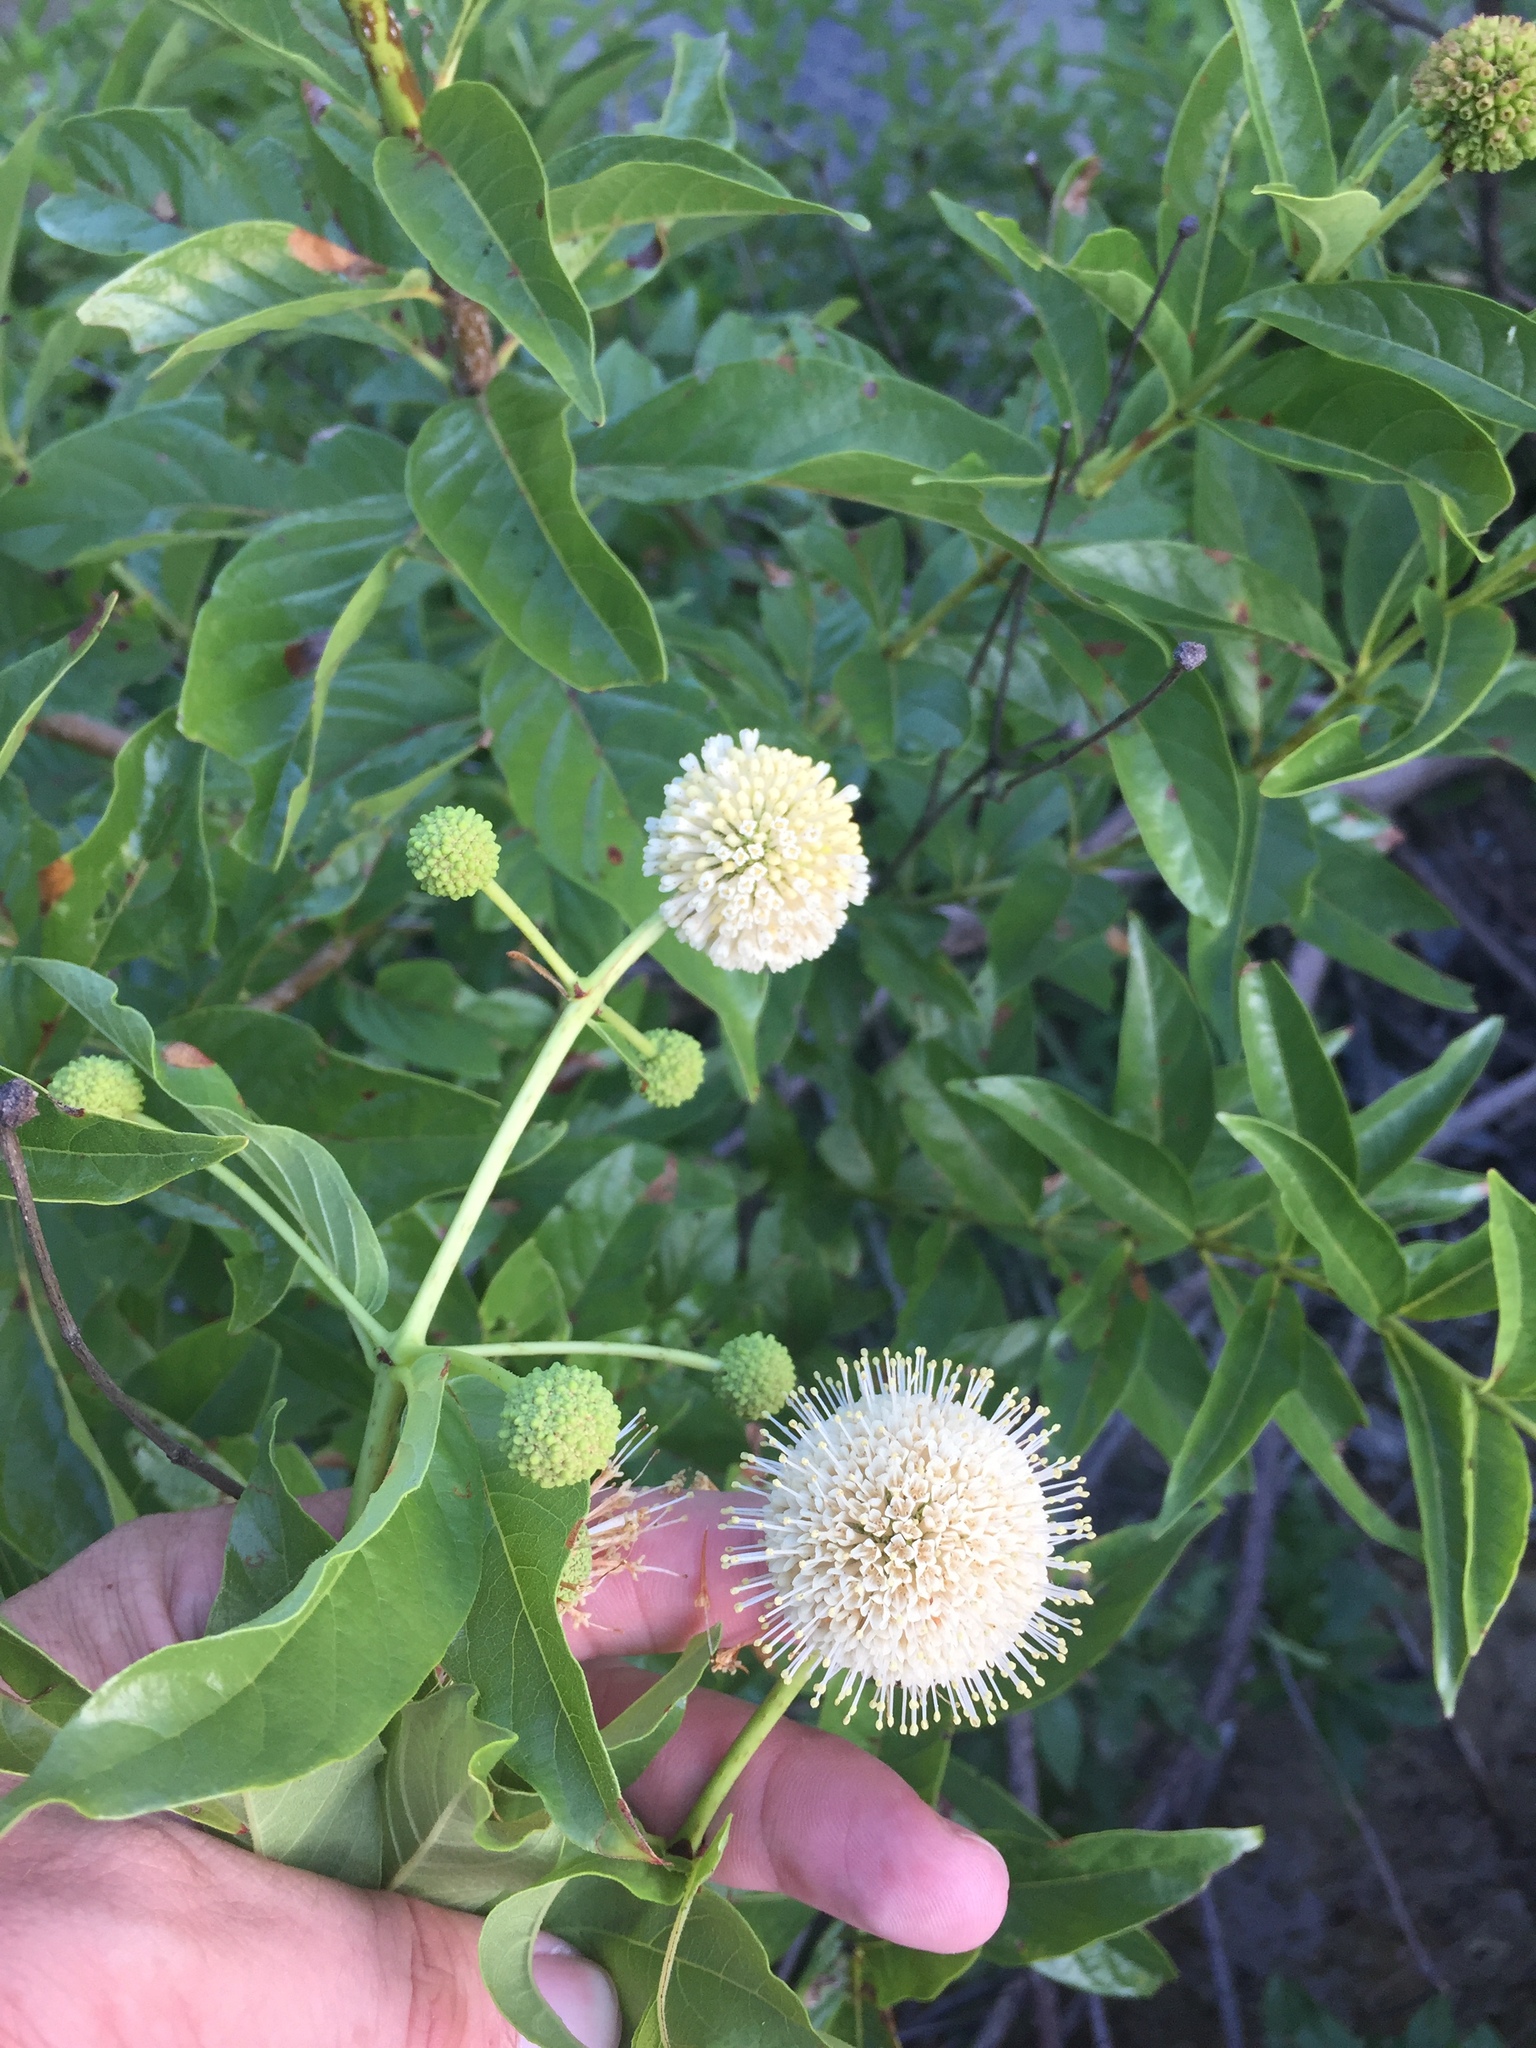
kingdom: Plantae
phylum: Tracheophyta
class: Magnoliopsida
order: Gentianales
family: Rubiaceae
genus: Cephalanthus
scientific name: Cephalanthus occidentalis
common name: Button-willow
